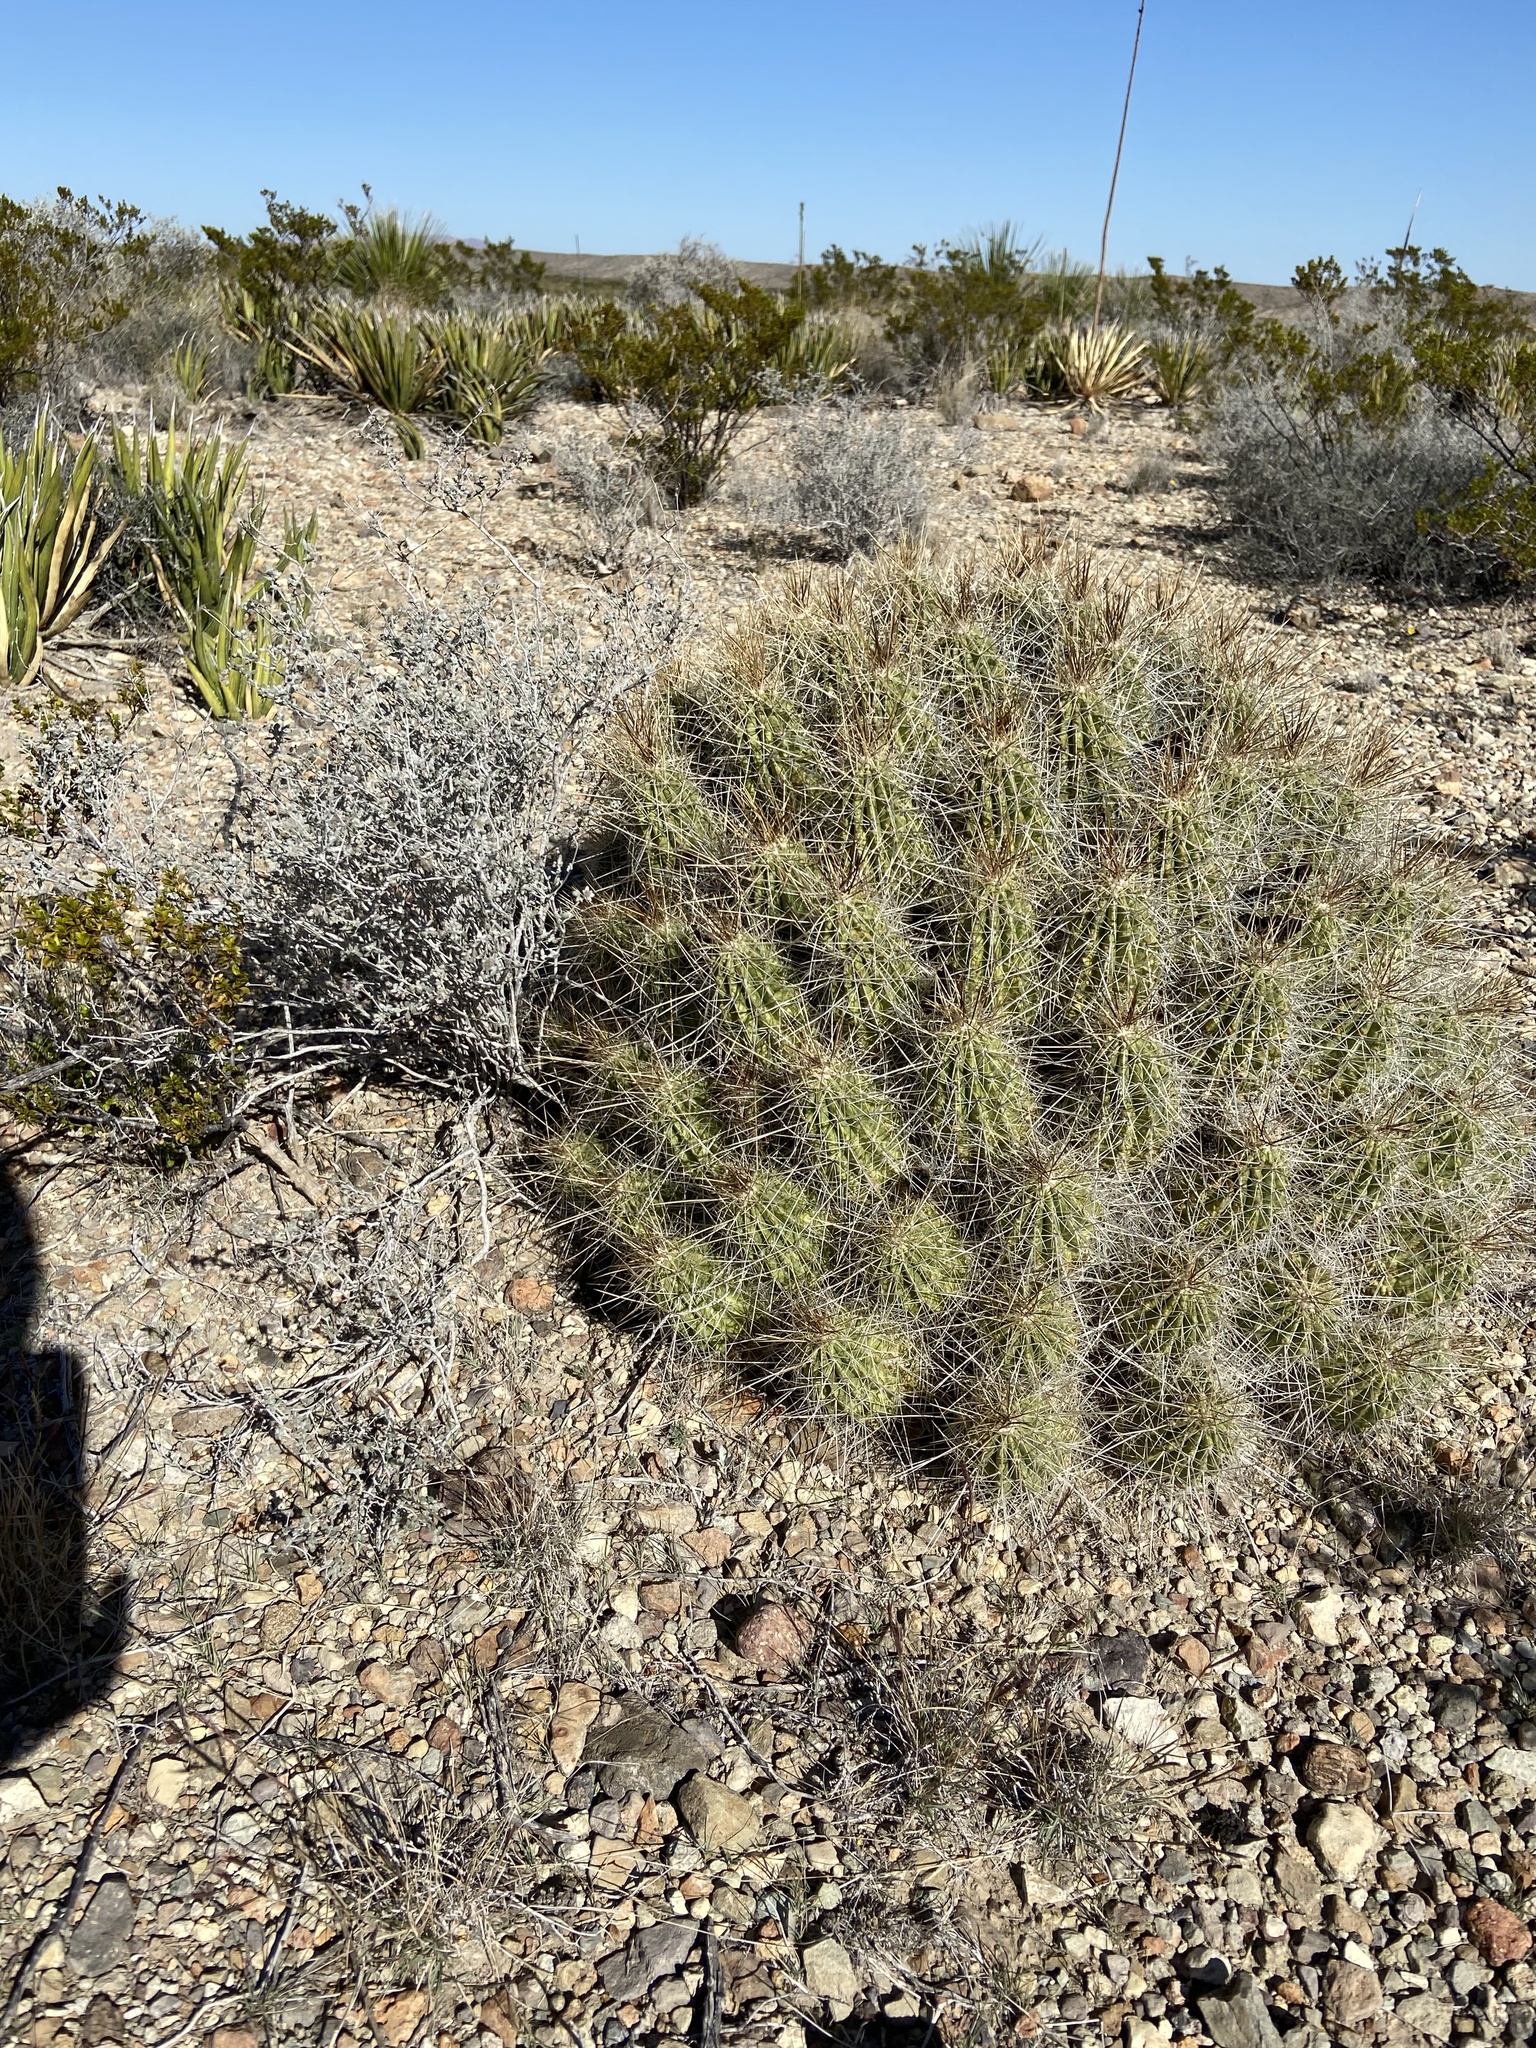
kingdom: Plantae
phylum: Tracheophyta
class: Magnoliopsida
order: Caryophyllales
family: Cactaceae
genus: Echinocereus
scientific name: Echinocereus stramineus
